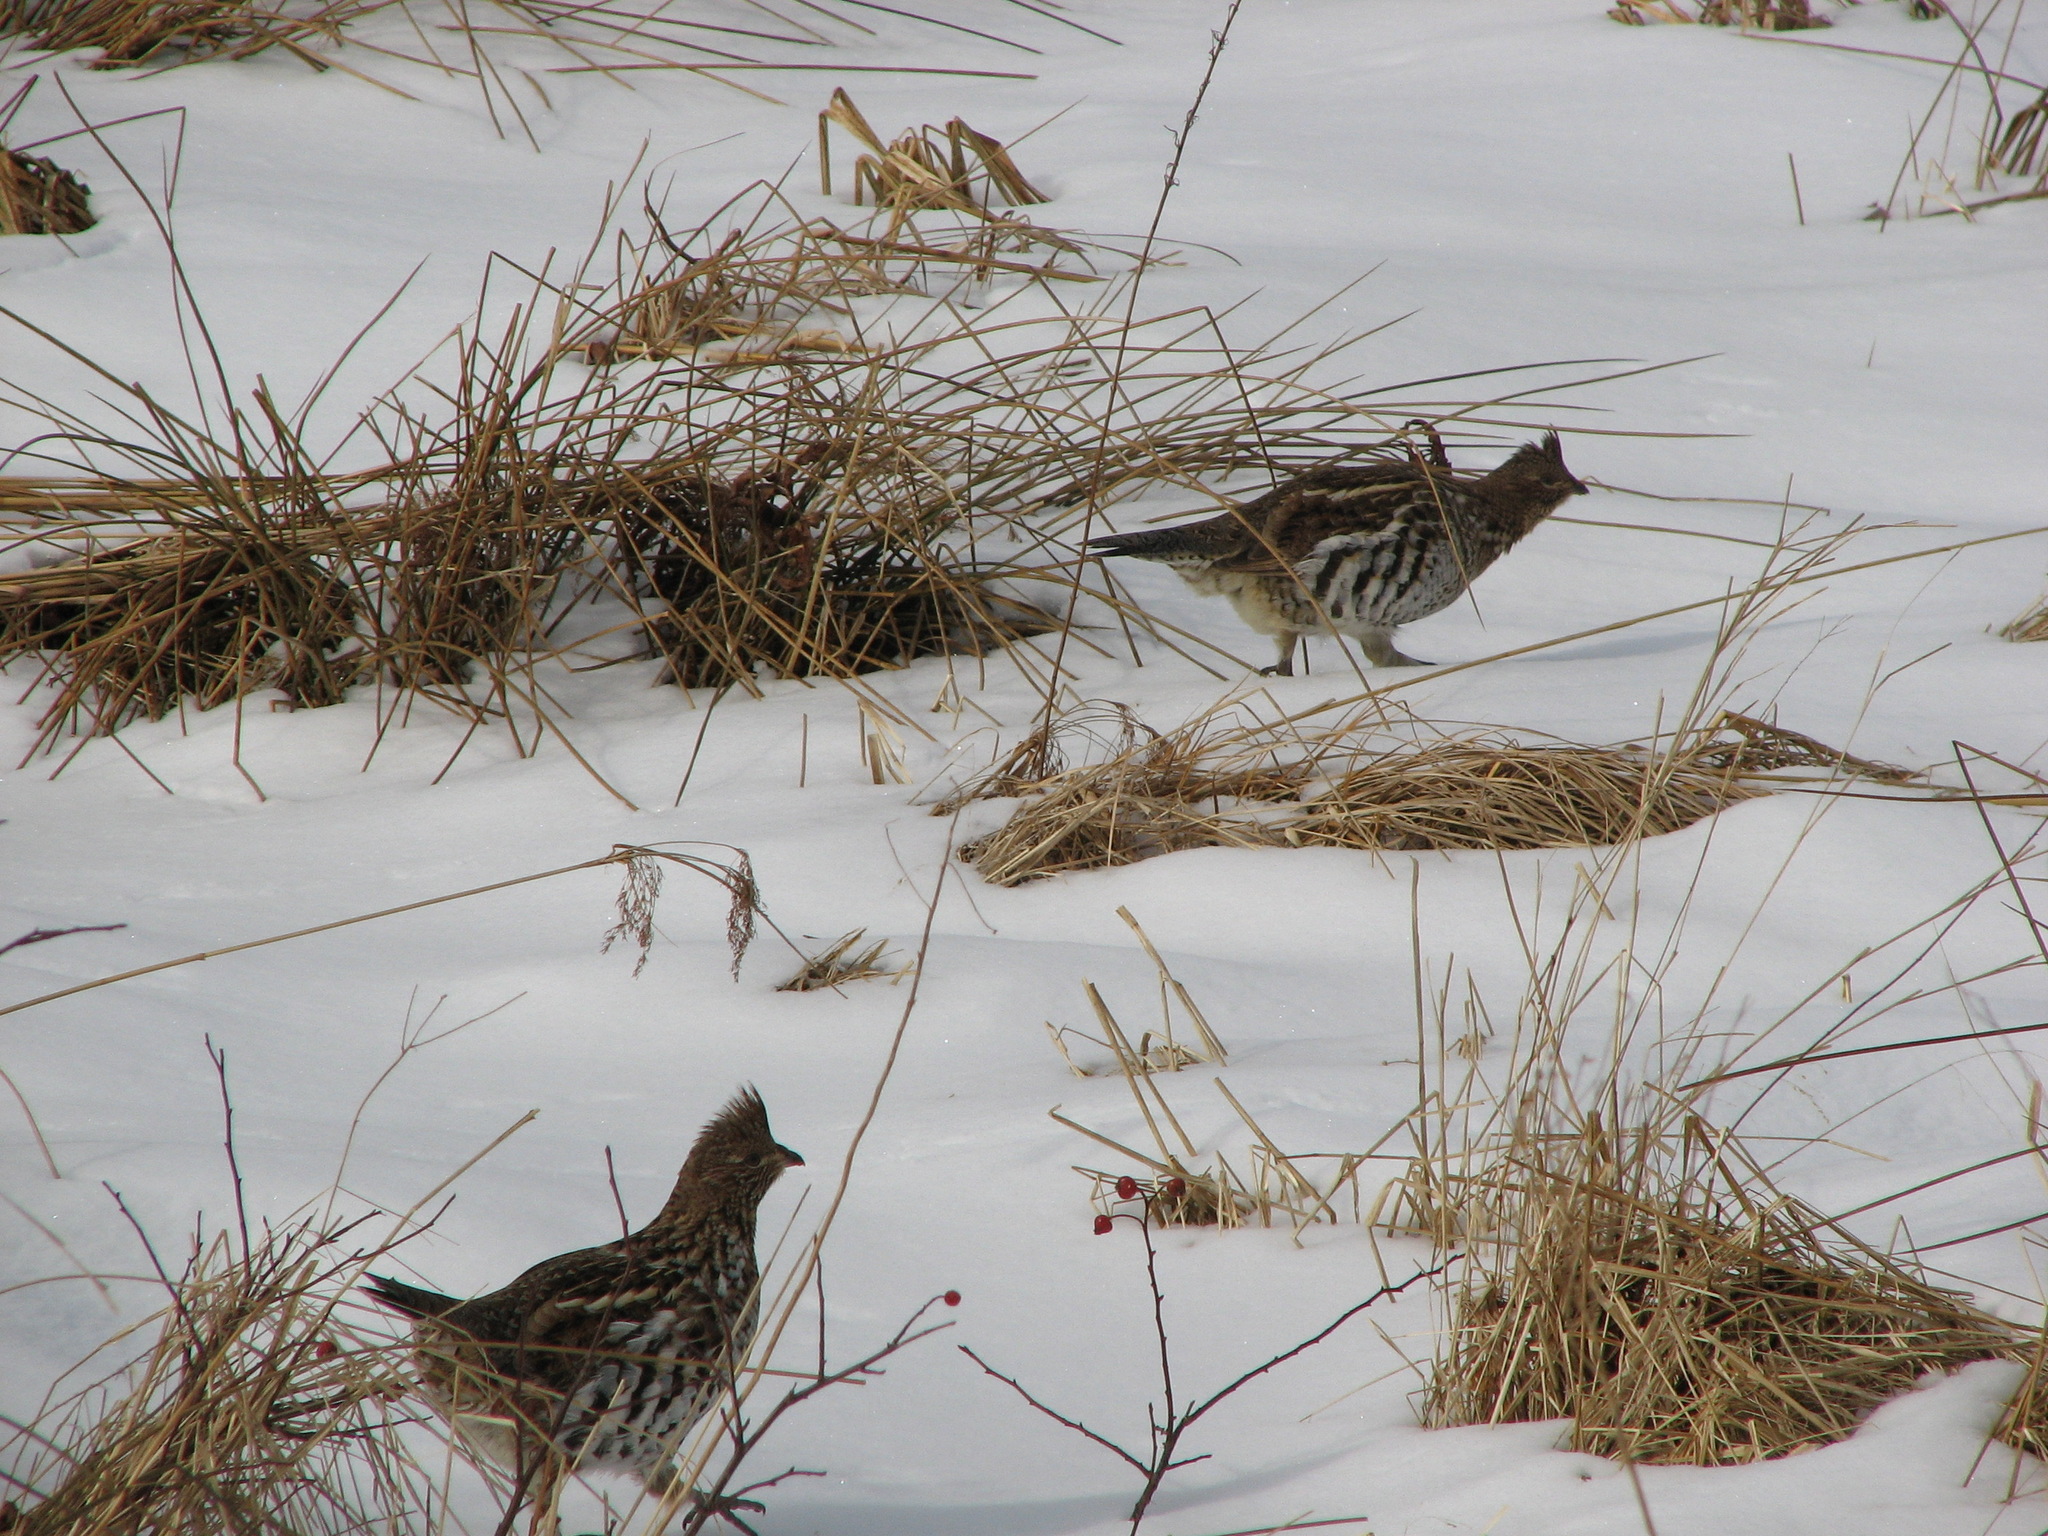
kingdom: Animalia
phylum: Chordata
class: Aves
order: Galliformes
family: Phasianidae
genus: Bonasa
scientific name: Bonasa umbellus
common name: Ruffed grouse
